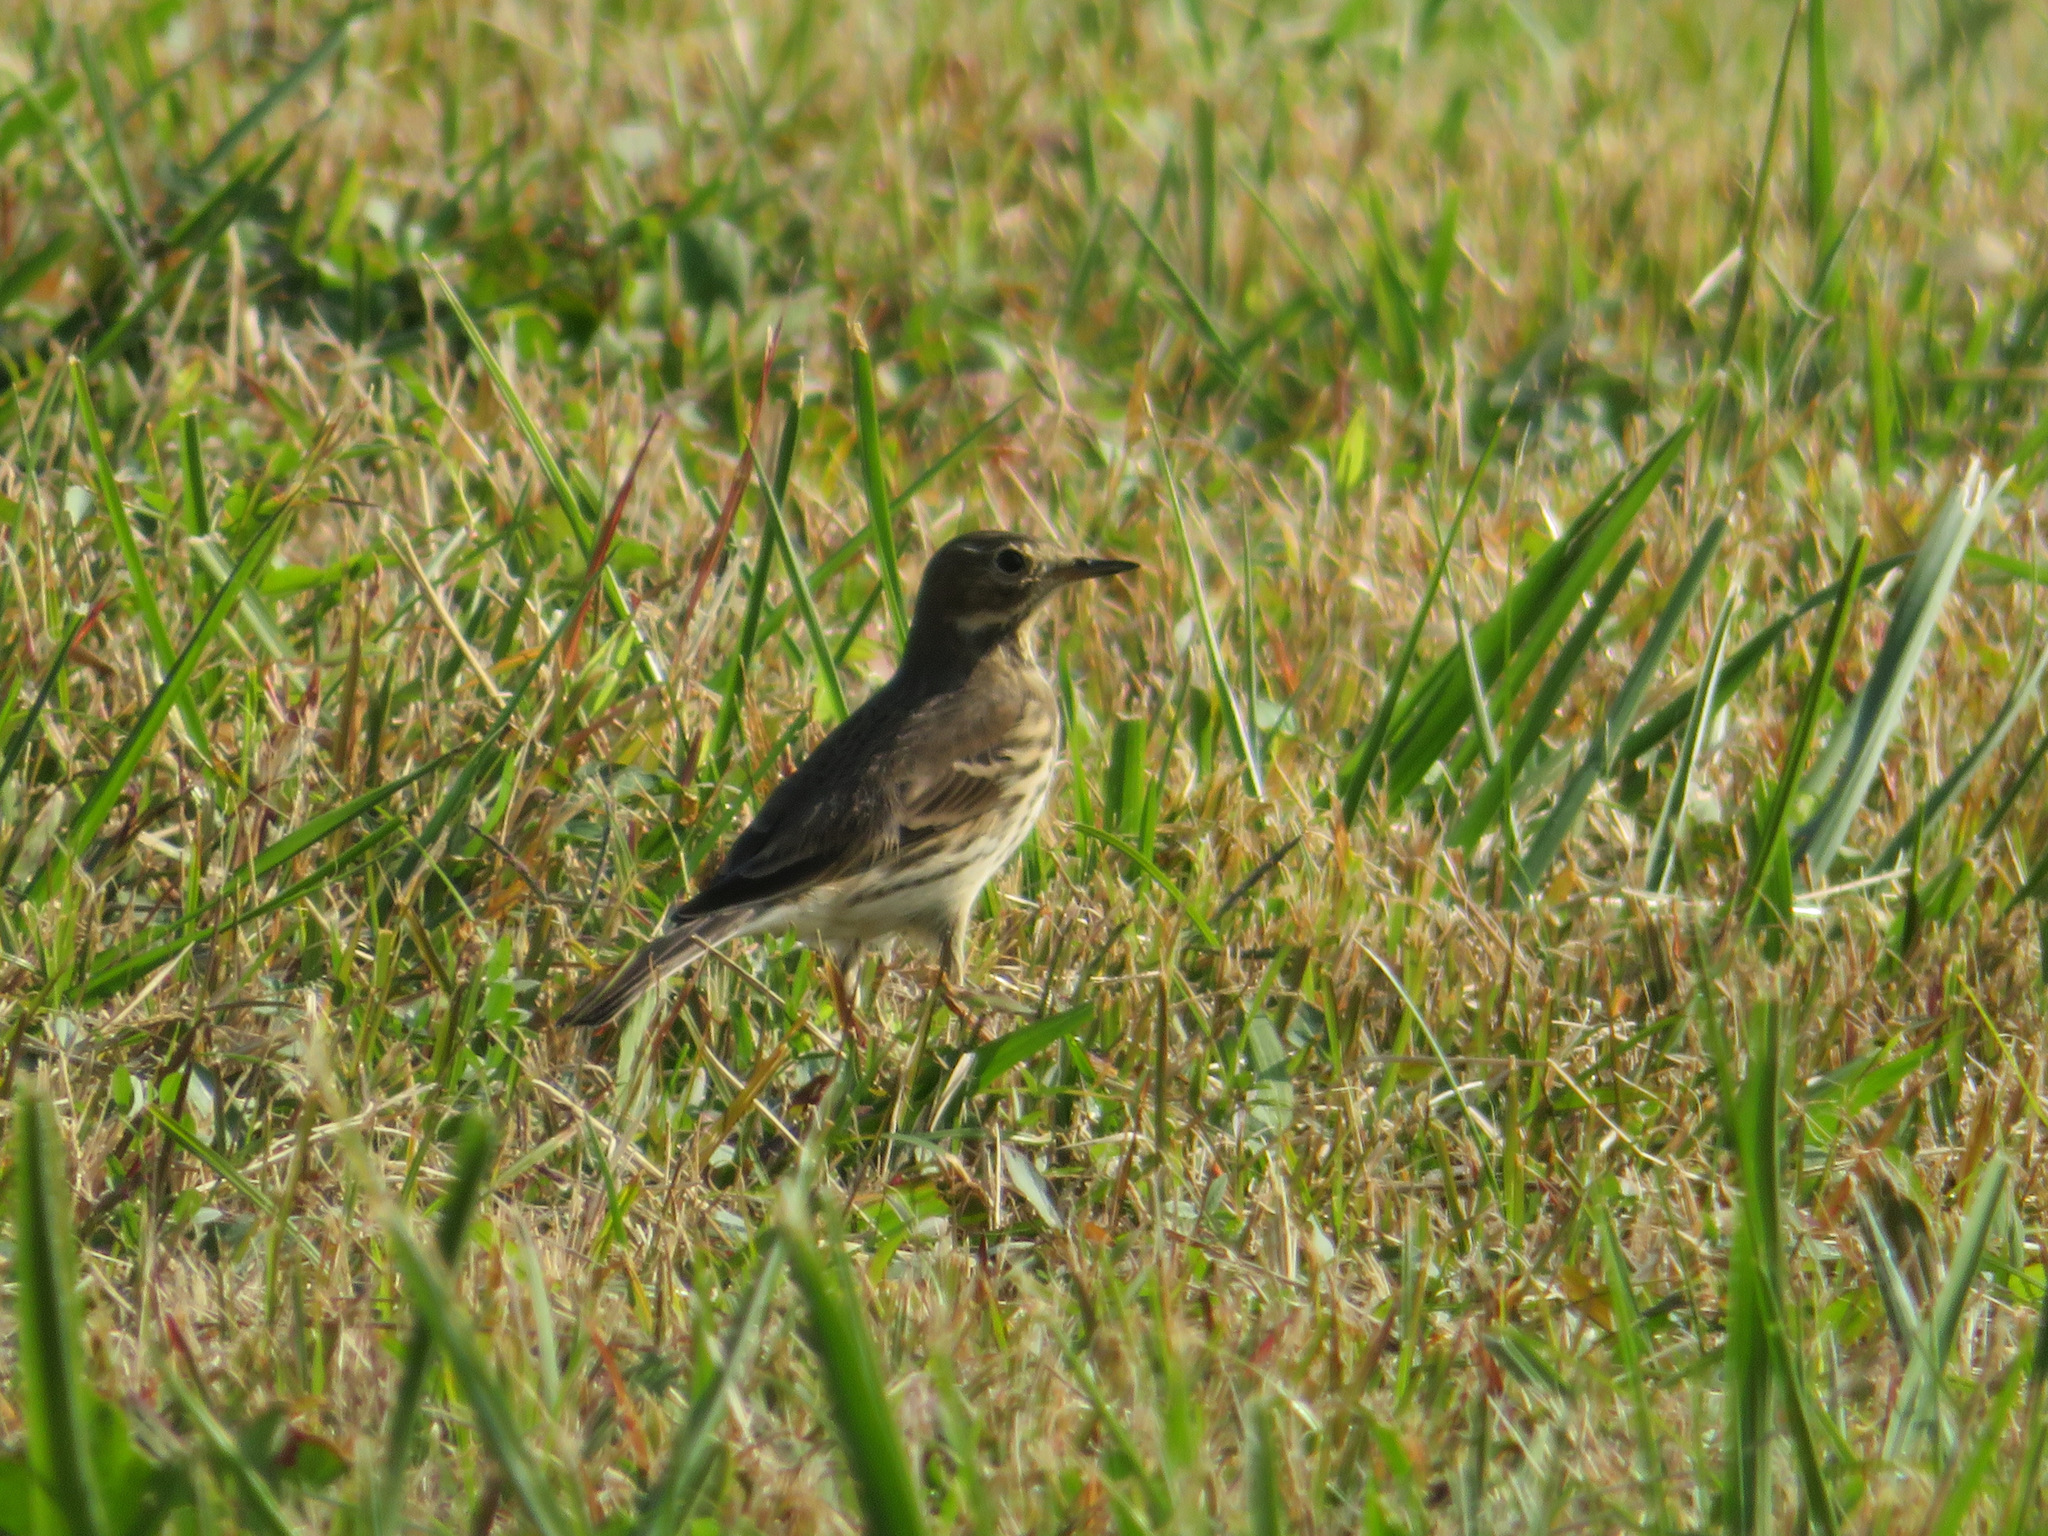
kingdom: Animalia
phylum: Chordata
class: Aves
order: Passeriformes
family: Motacillidae
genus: Anthus
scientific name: Anthus rubescens
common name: Buff-bellied pipit
